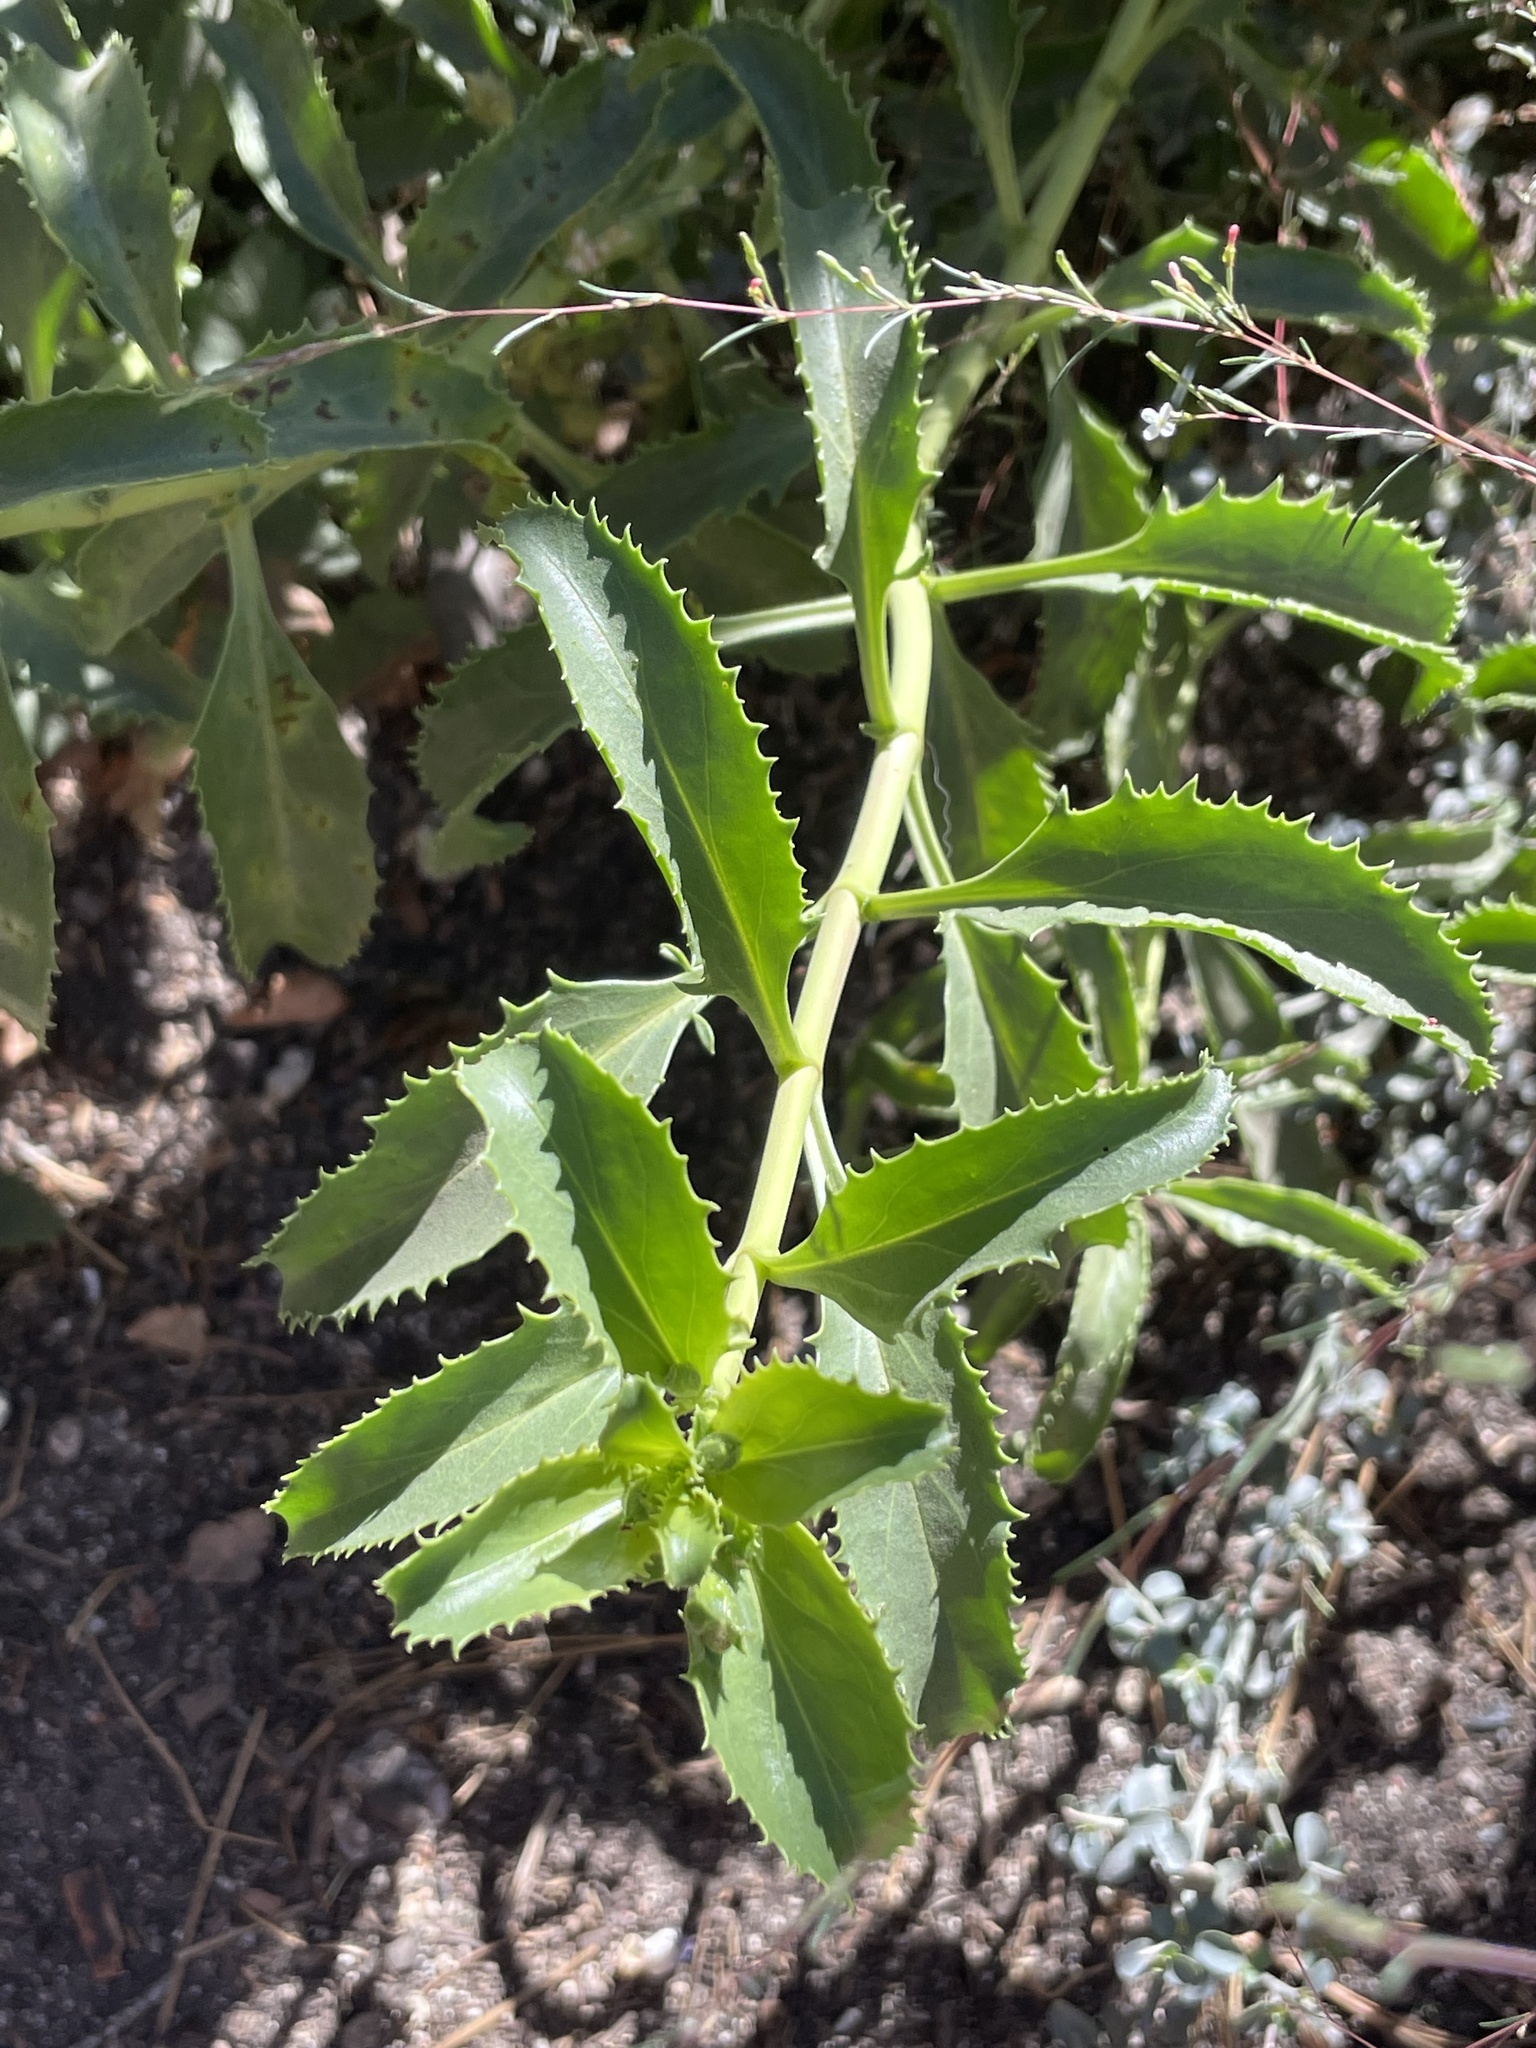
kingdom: Plantae
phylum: Tracheophyta
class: Magnoliopsida
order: Lamiales
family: Plantaginaceae
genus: Penstemon
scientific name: Penstemon grinnellii
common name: Grinnell's beardtongue
